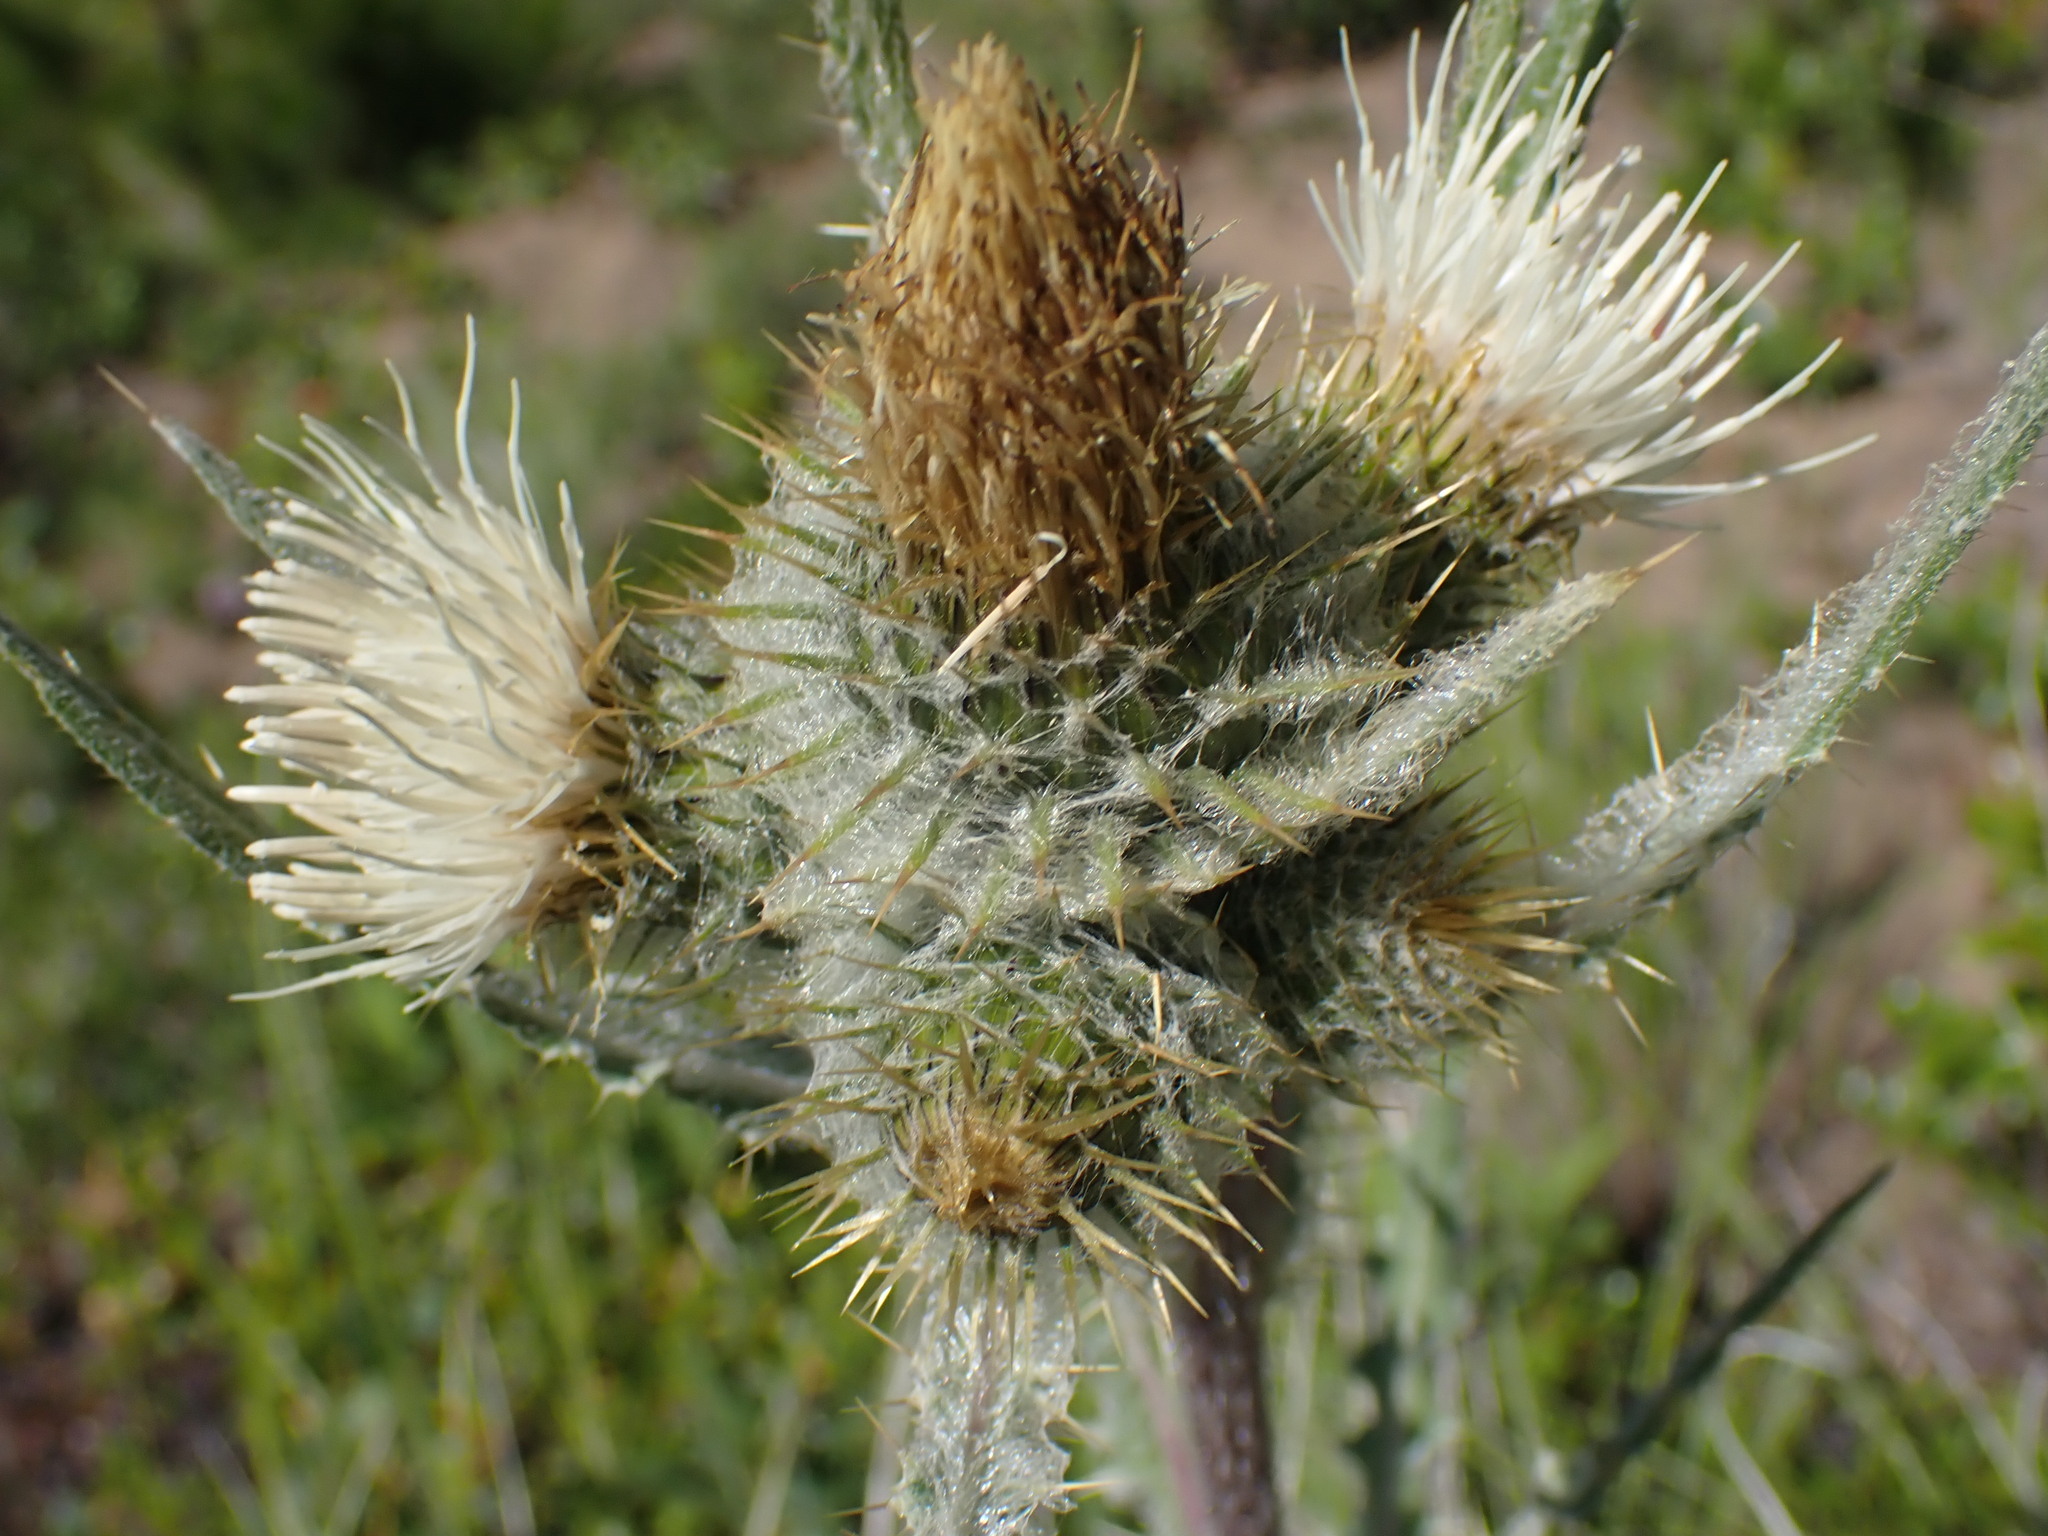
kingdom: Plantae
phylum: Tracheophyta
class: Magnoliopsida
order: Asterales
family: Asteraceae
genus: Cirsium
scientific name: Cirsium hookerianum
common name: Hooker's thistle
